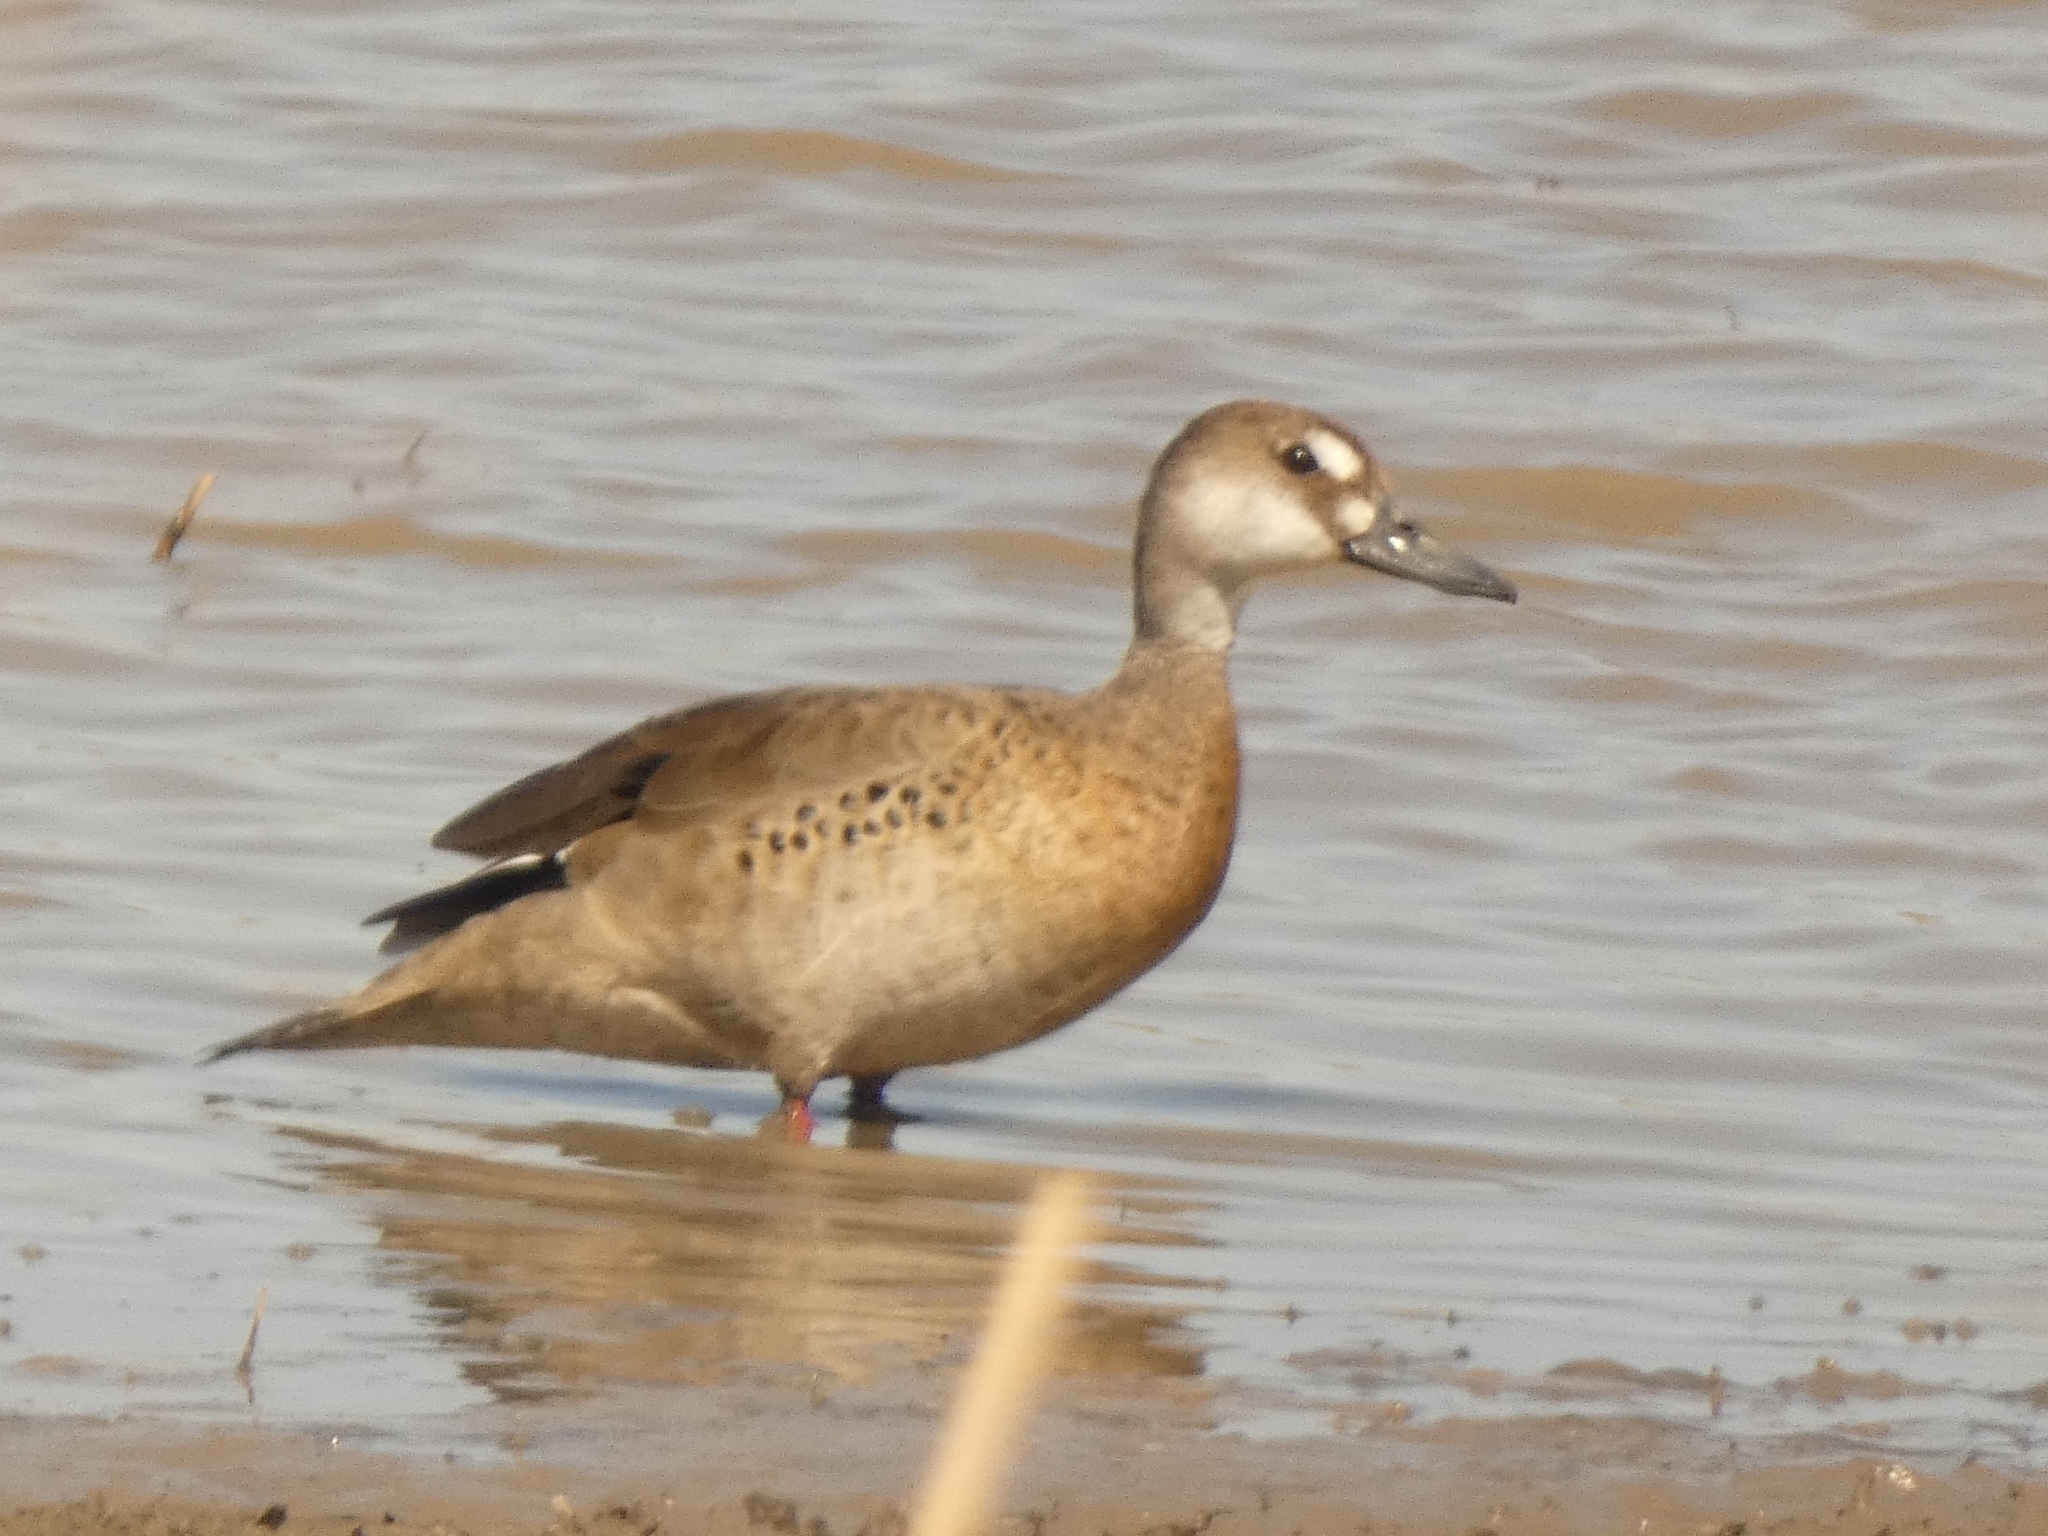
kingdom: Animalia
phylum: Chordata
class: Aves
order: Anseriformes
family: Anatidae
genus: Amazonetta
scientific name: Amazonetta brasiliensis
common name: Brazilian teal
